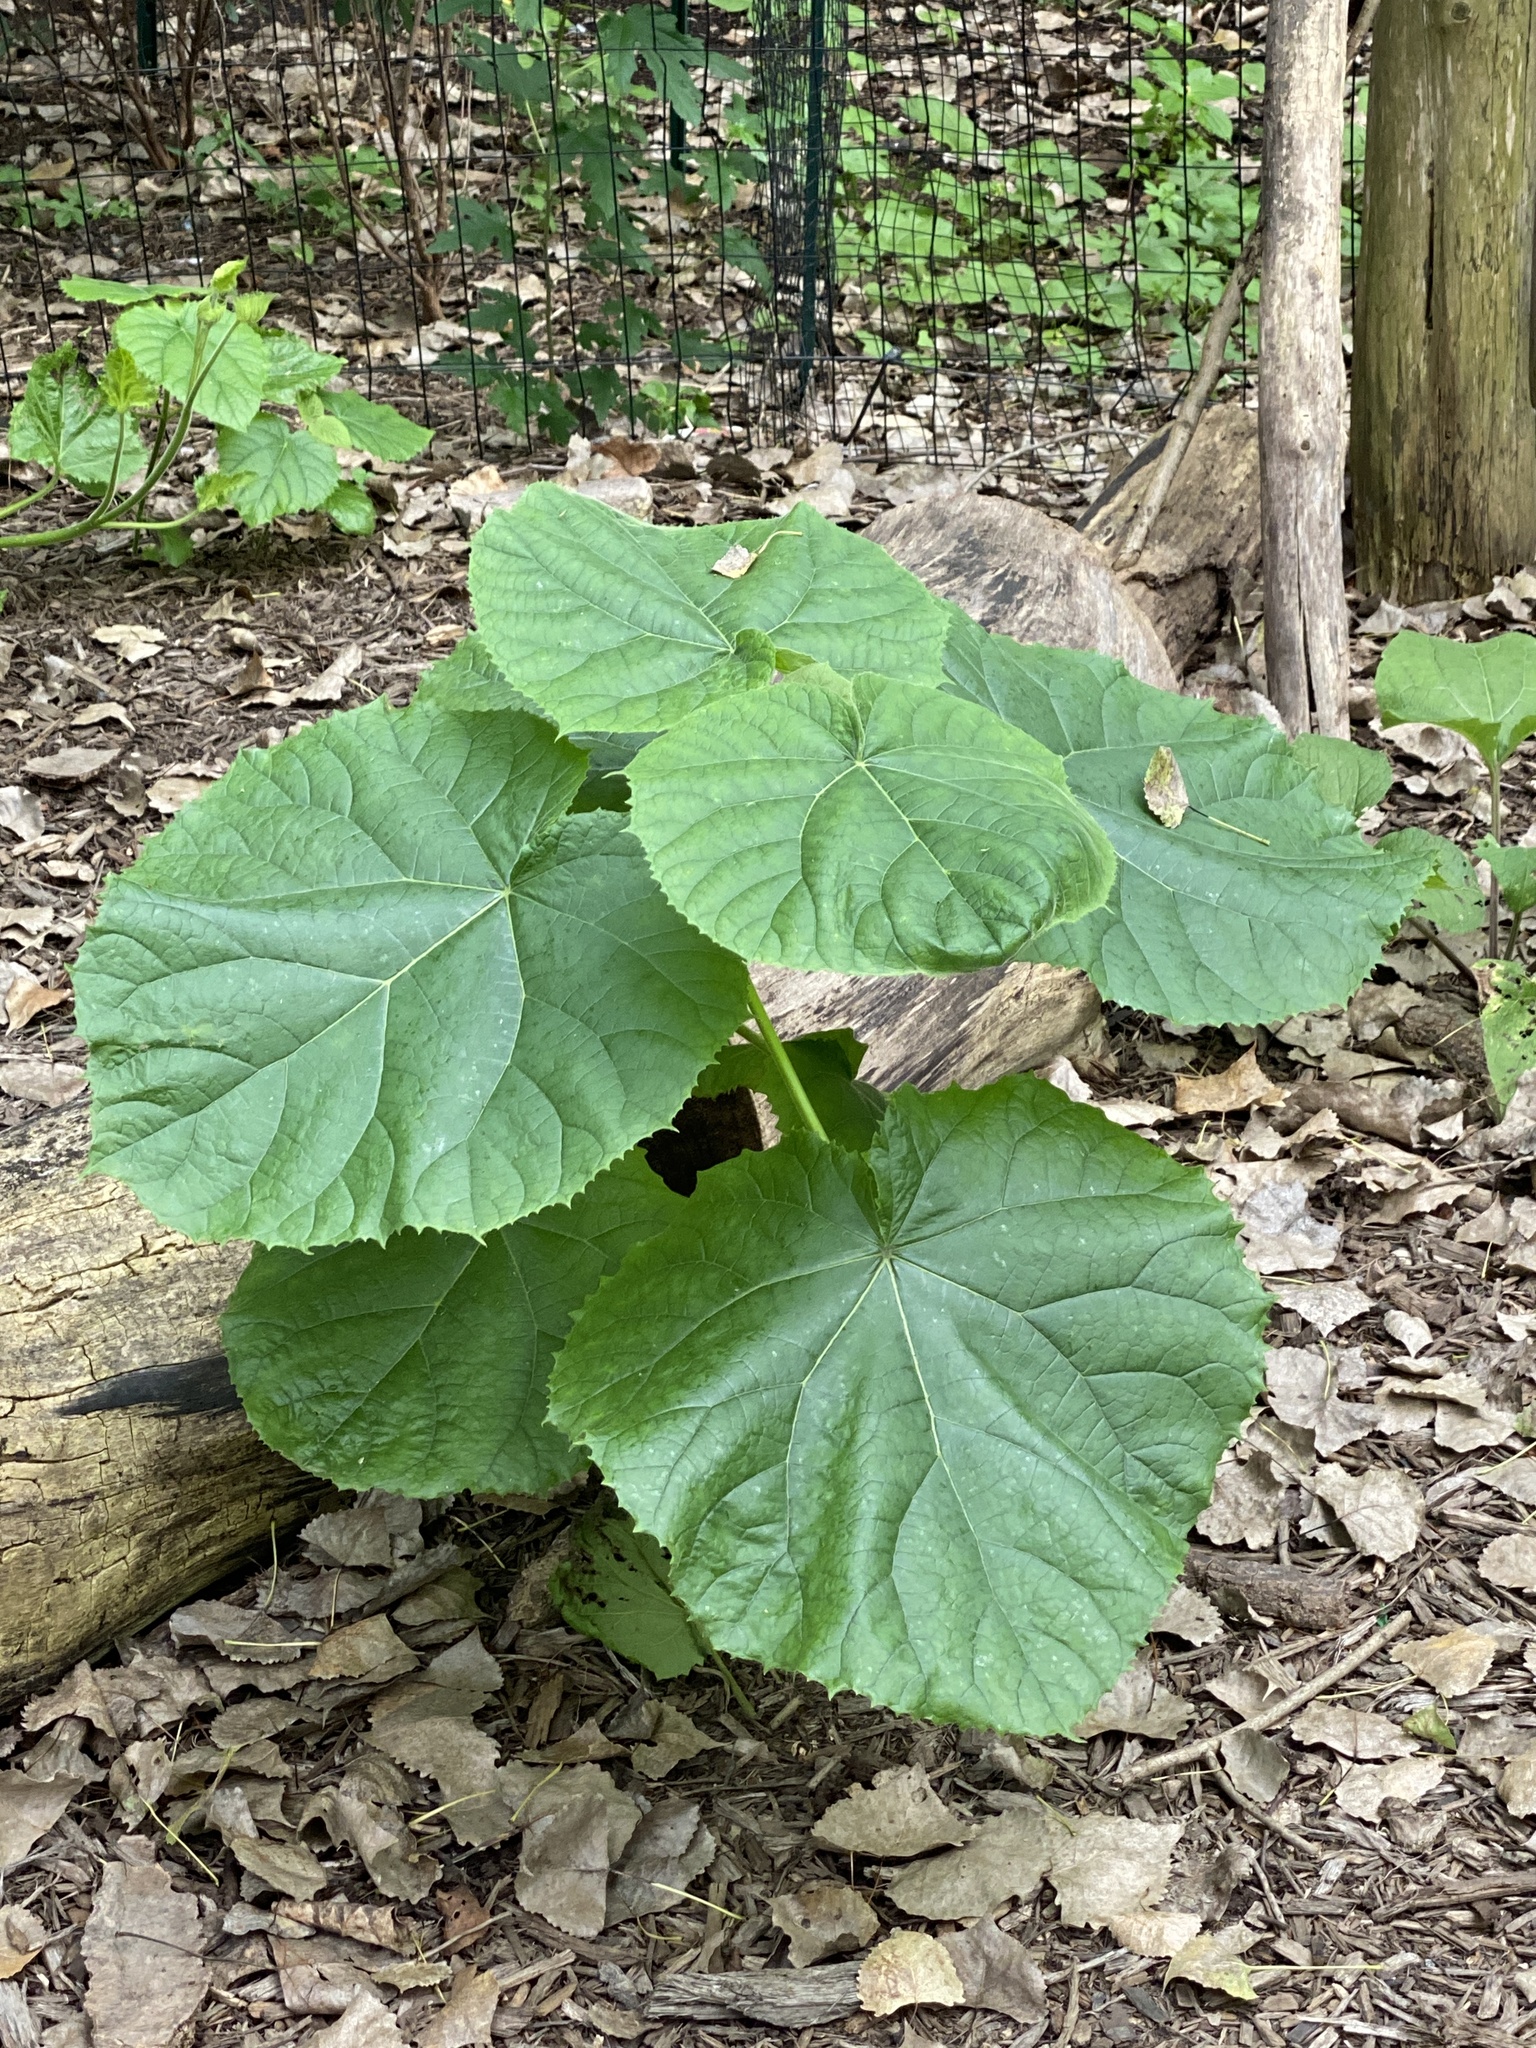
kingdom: Plantae
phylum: Tracheophyta
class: Magnoliopsida
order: Lamiales
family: Paulowniaceae
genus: Paulownia
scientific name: Paulownia tomentosa
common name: Foxglove-tree
